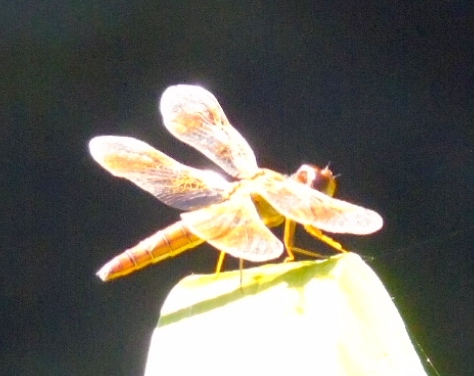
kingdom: Animalia
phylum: Arthropoda
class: Insecta
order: Odonata
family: Libellulidae
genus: Perithemis
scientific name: Perithemis
